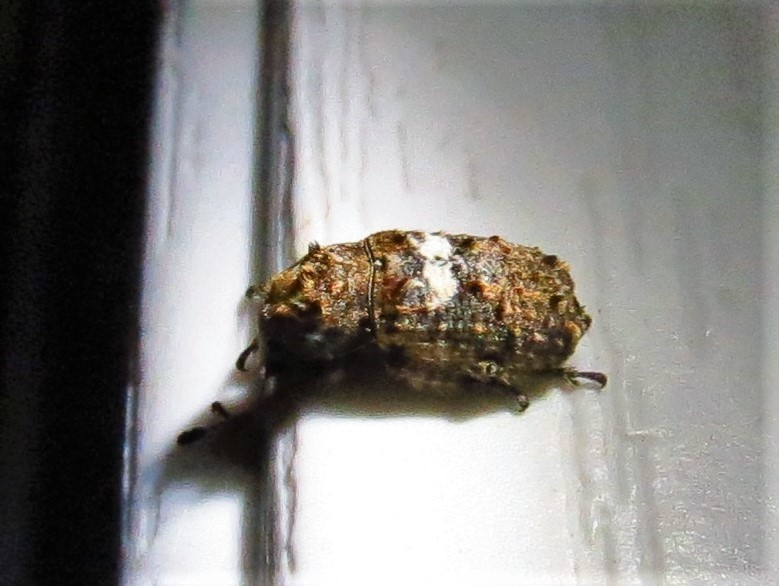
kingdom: Animalia
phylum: Arthropoda
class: Insecta
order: Coleoptera
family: Anthribidae
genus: Toxonotus
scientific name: Toxonotus cornutus
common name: Fungus weevil
